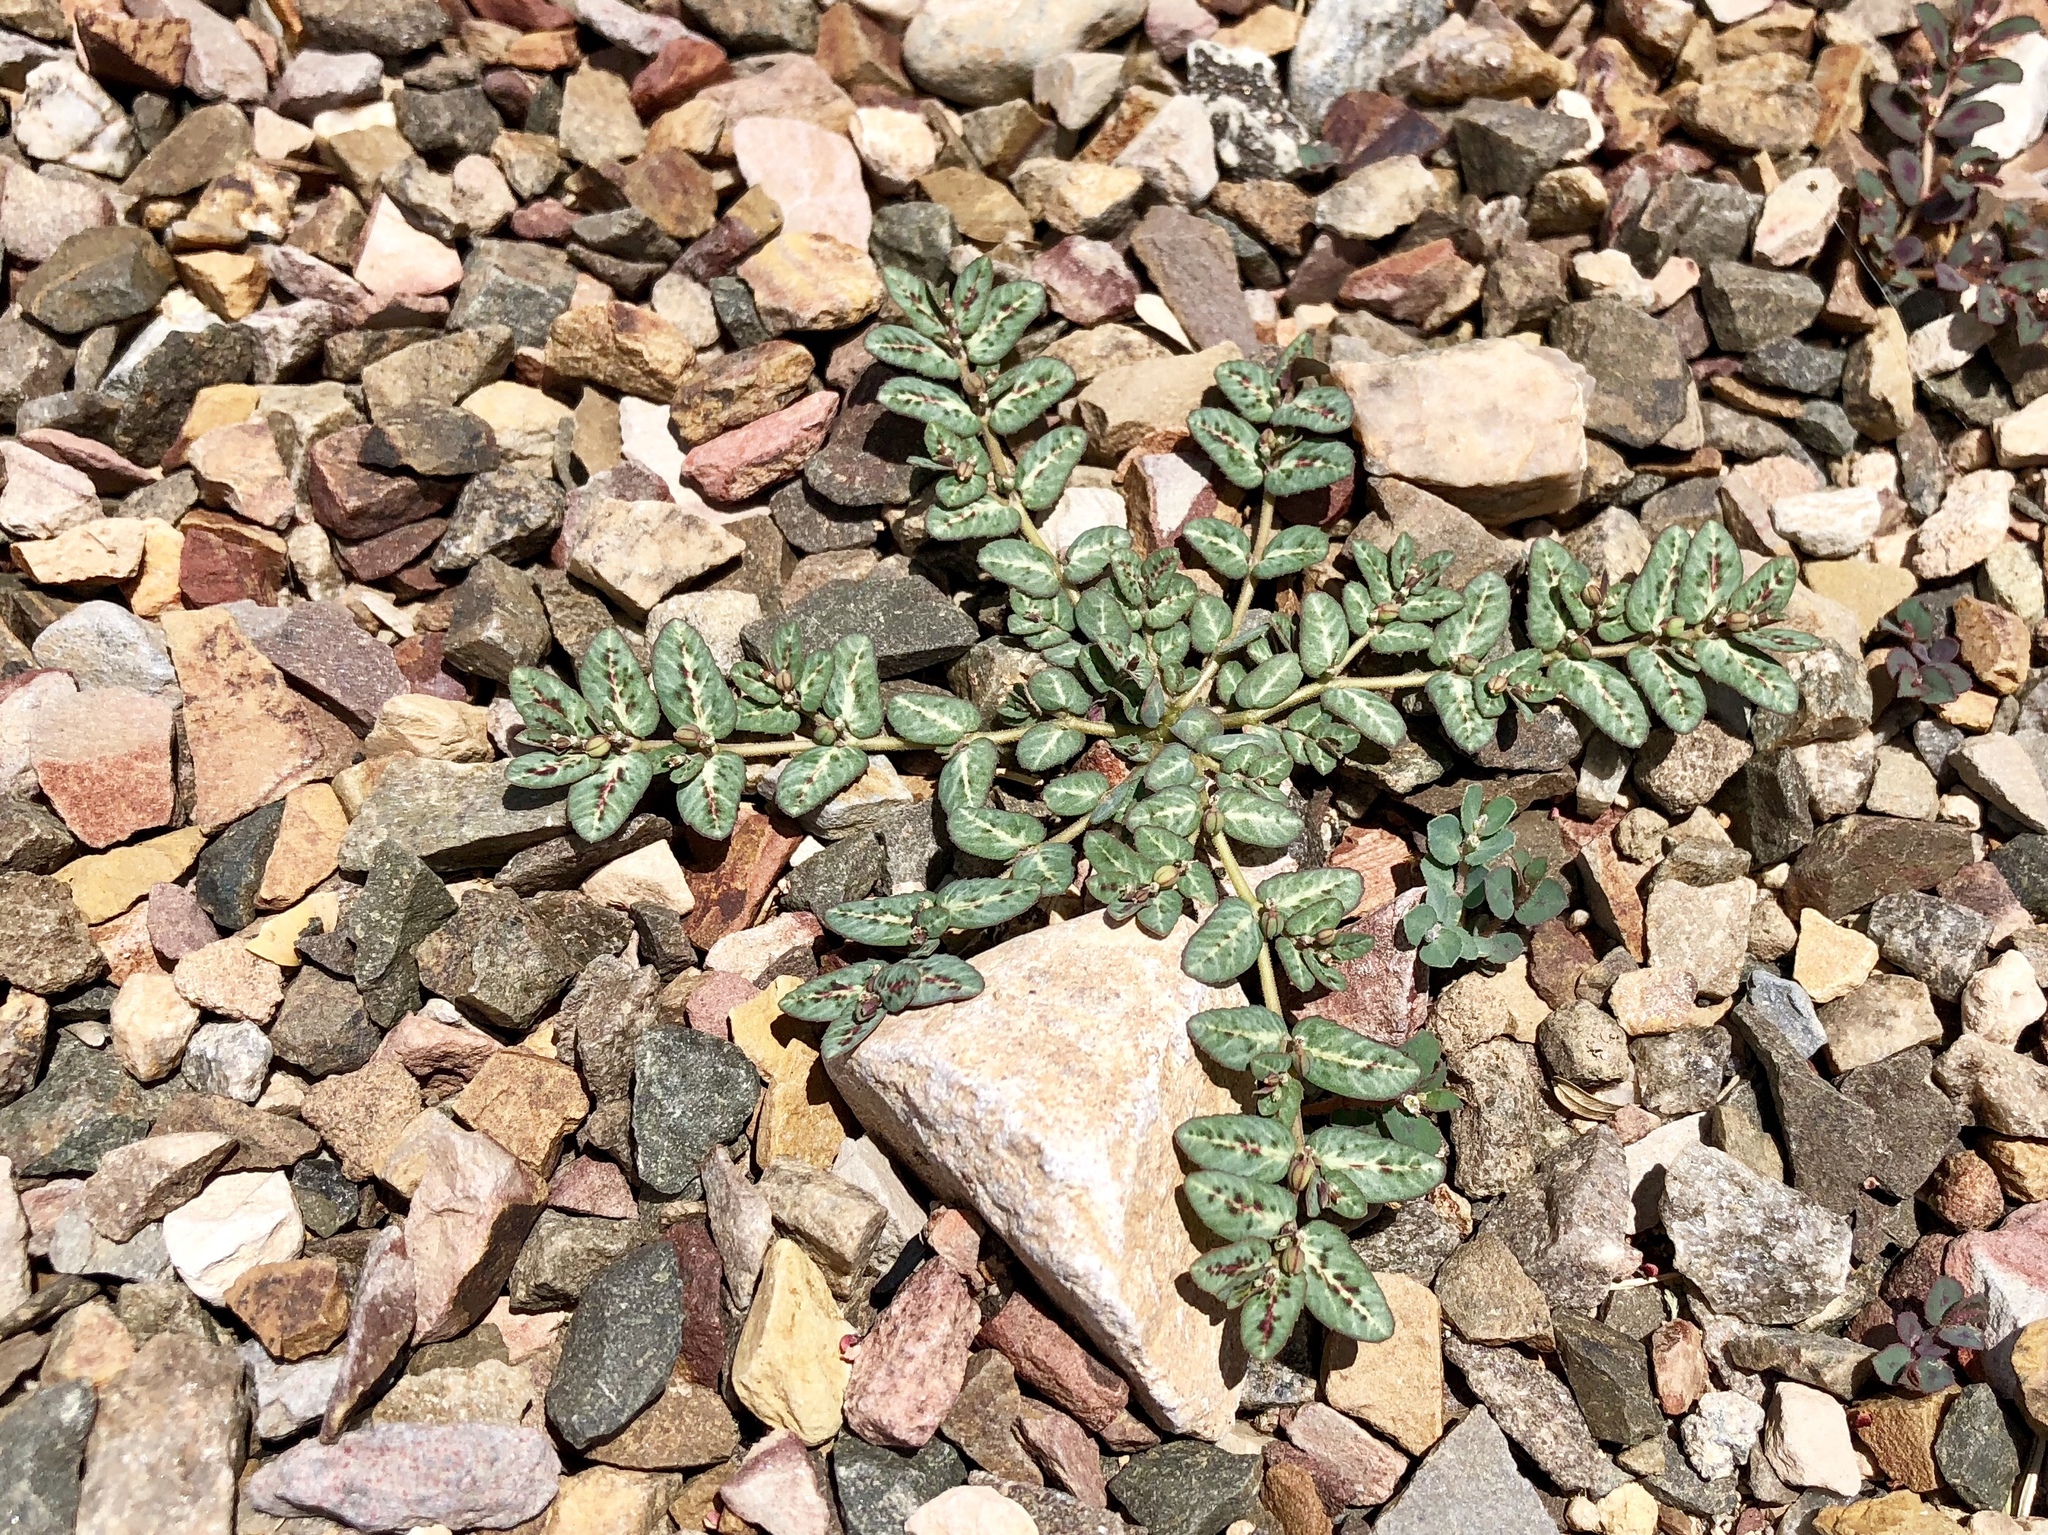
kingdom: Plantae
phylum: Tracheophyta
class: Magnoliopsida
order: Malpighiales
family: Euphorbiaceae
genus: Euphorbia
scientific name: Euphorbia abramsiana
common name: Abram's spurge
